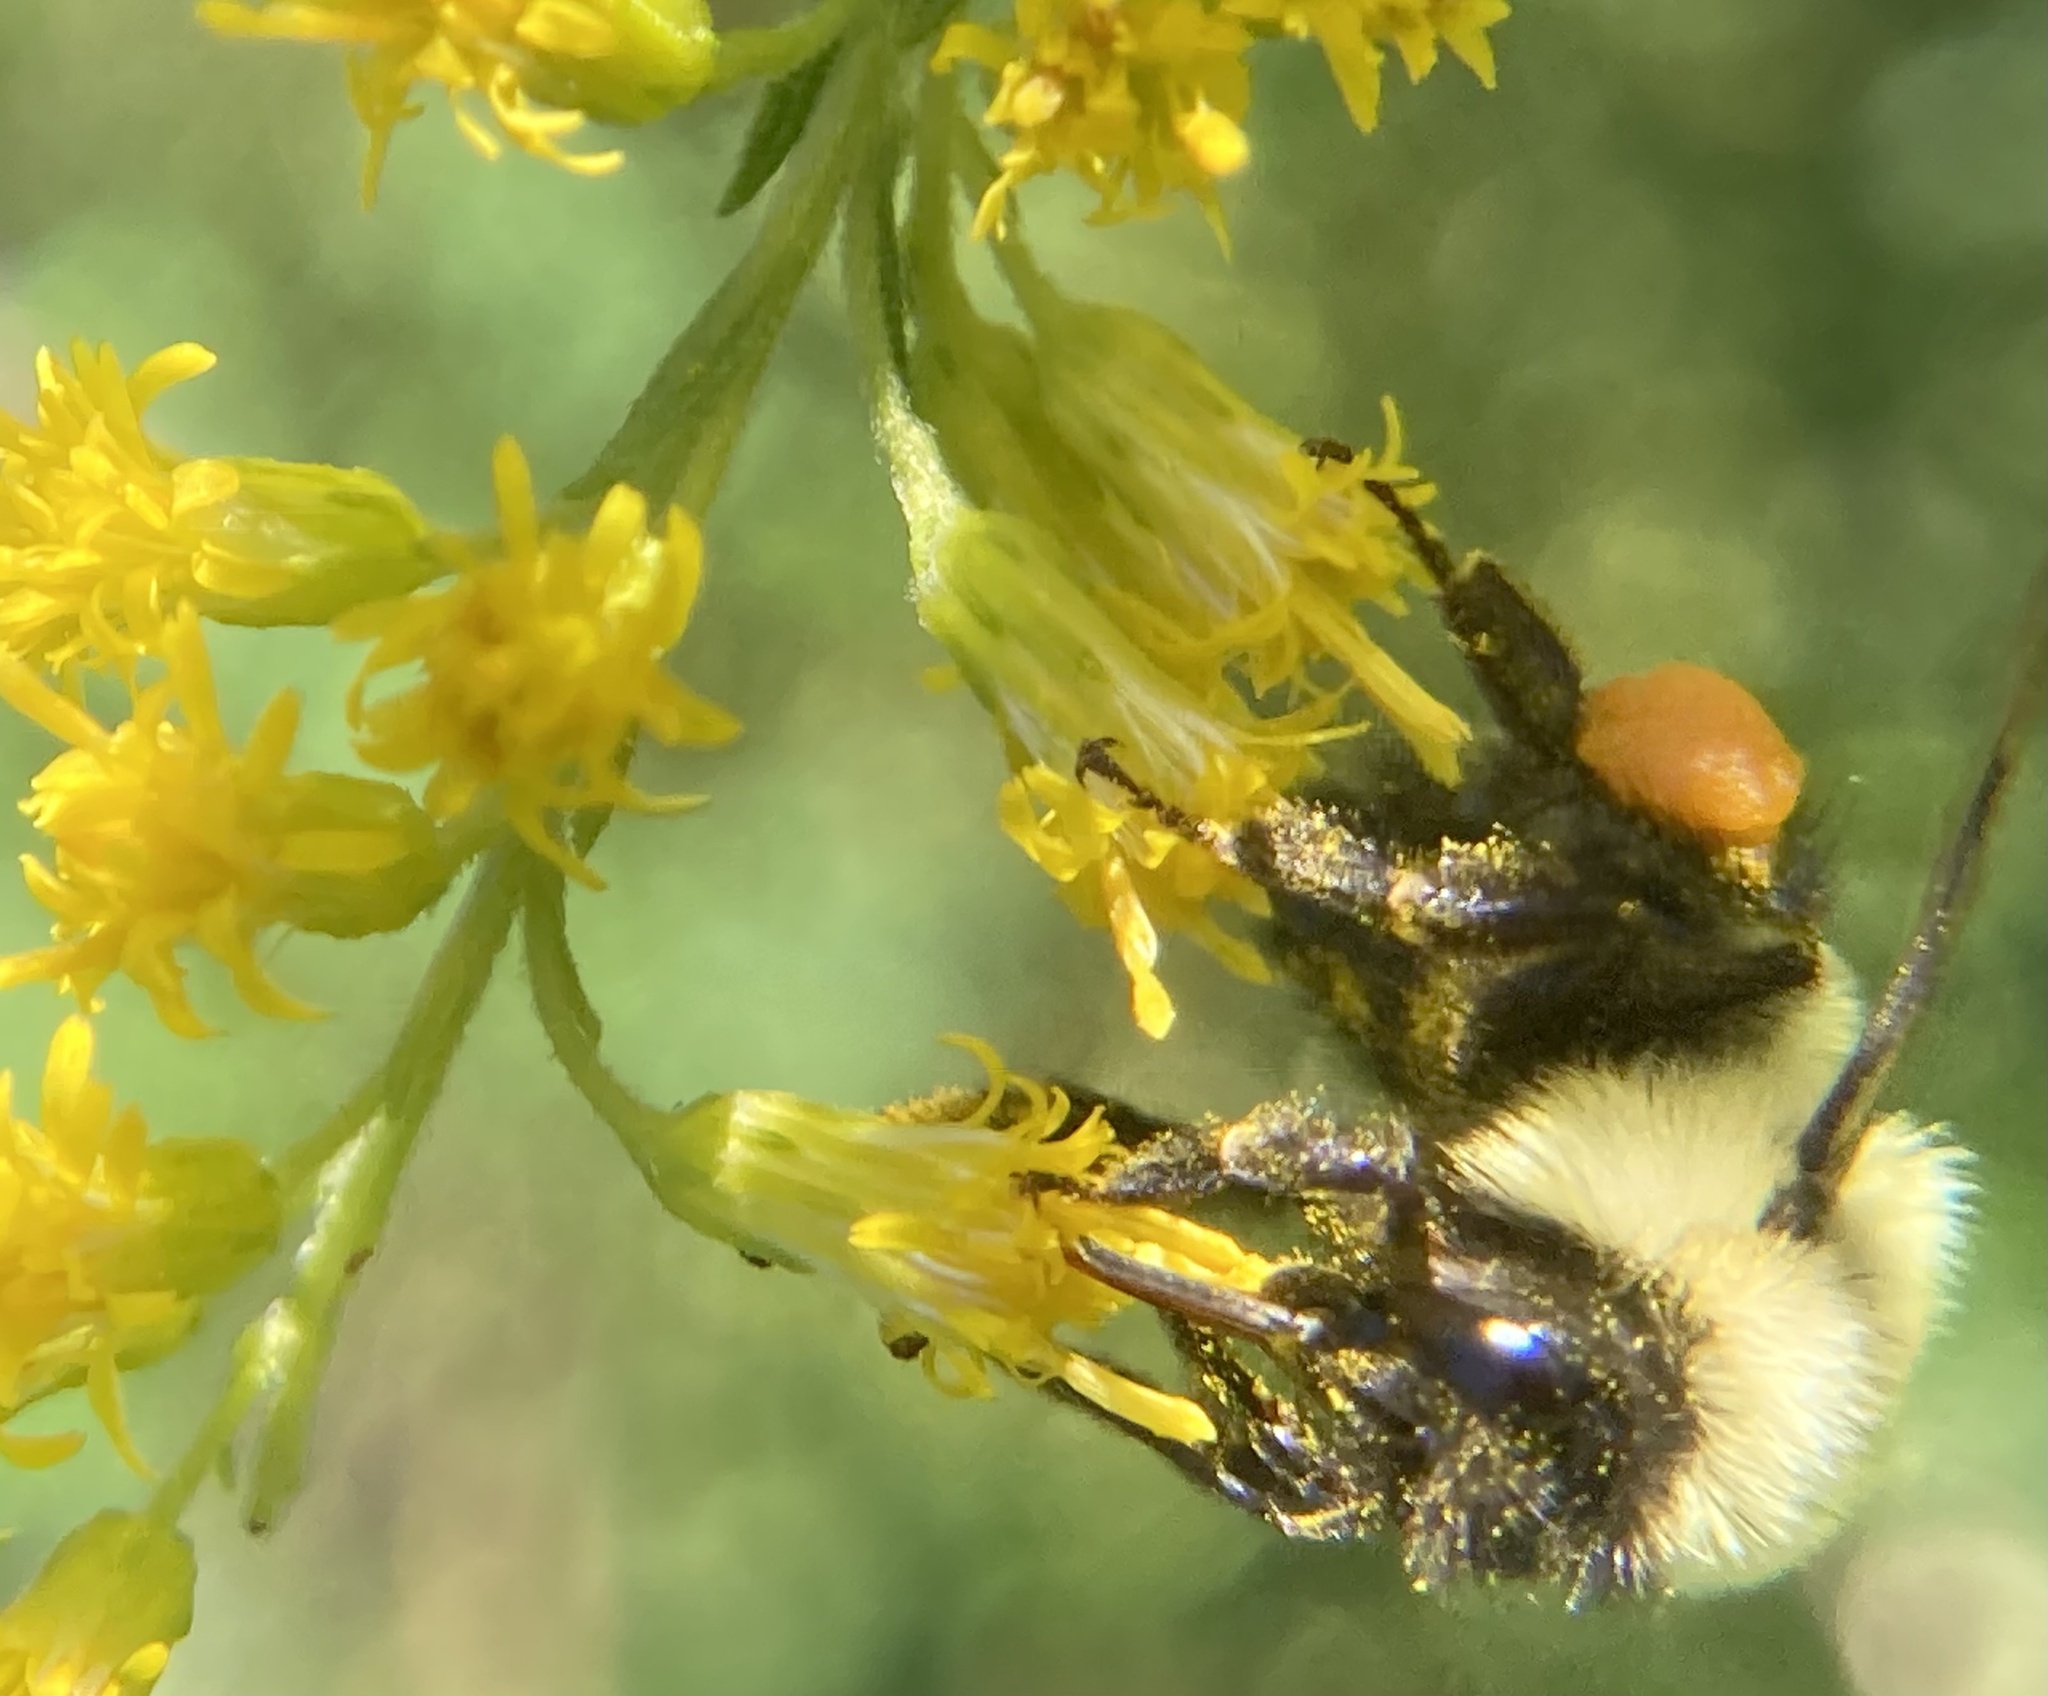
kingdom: Animalia
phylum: Arthropoda
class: Insecta
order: Hymenoptera
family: Apidae
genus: Bombus
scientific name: Bombus impatiens
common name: Common eastern bumble bee
